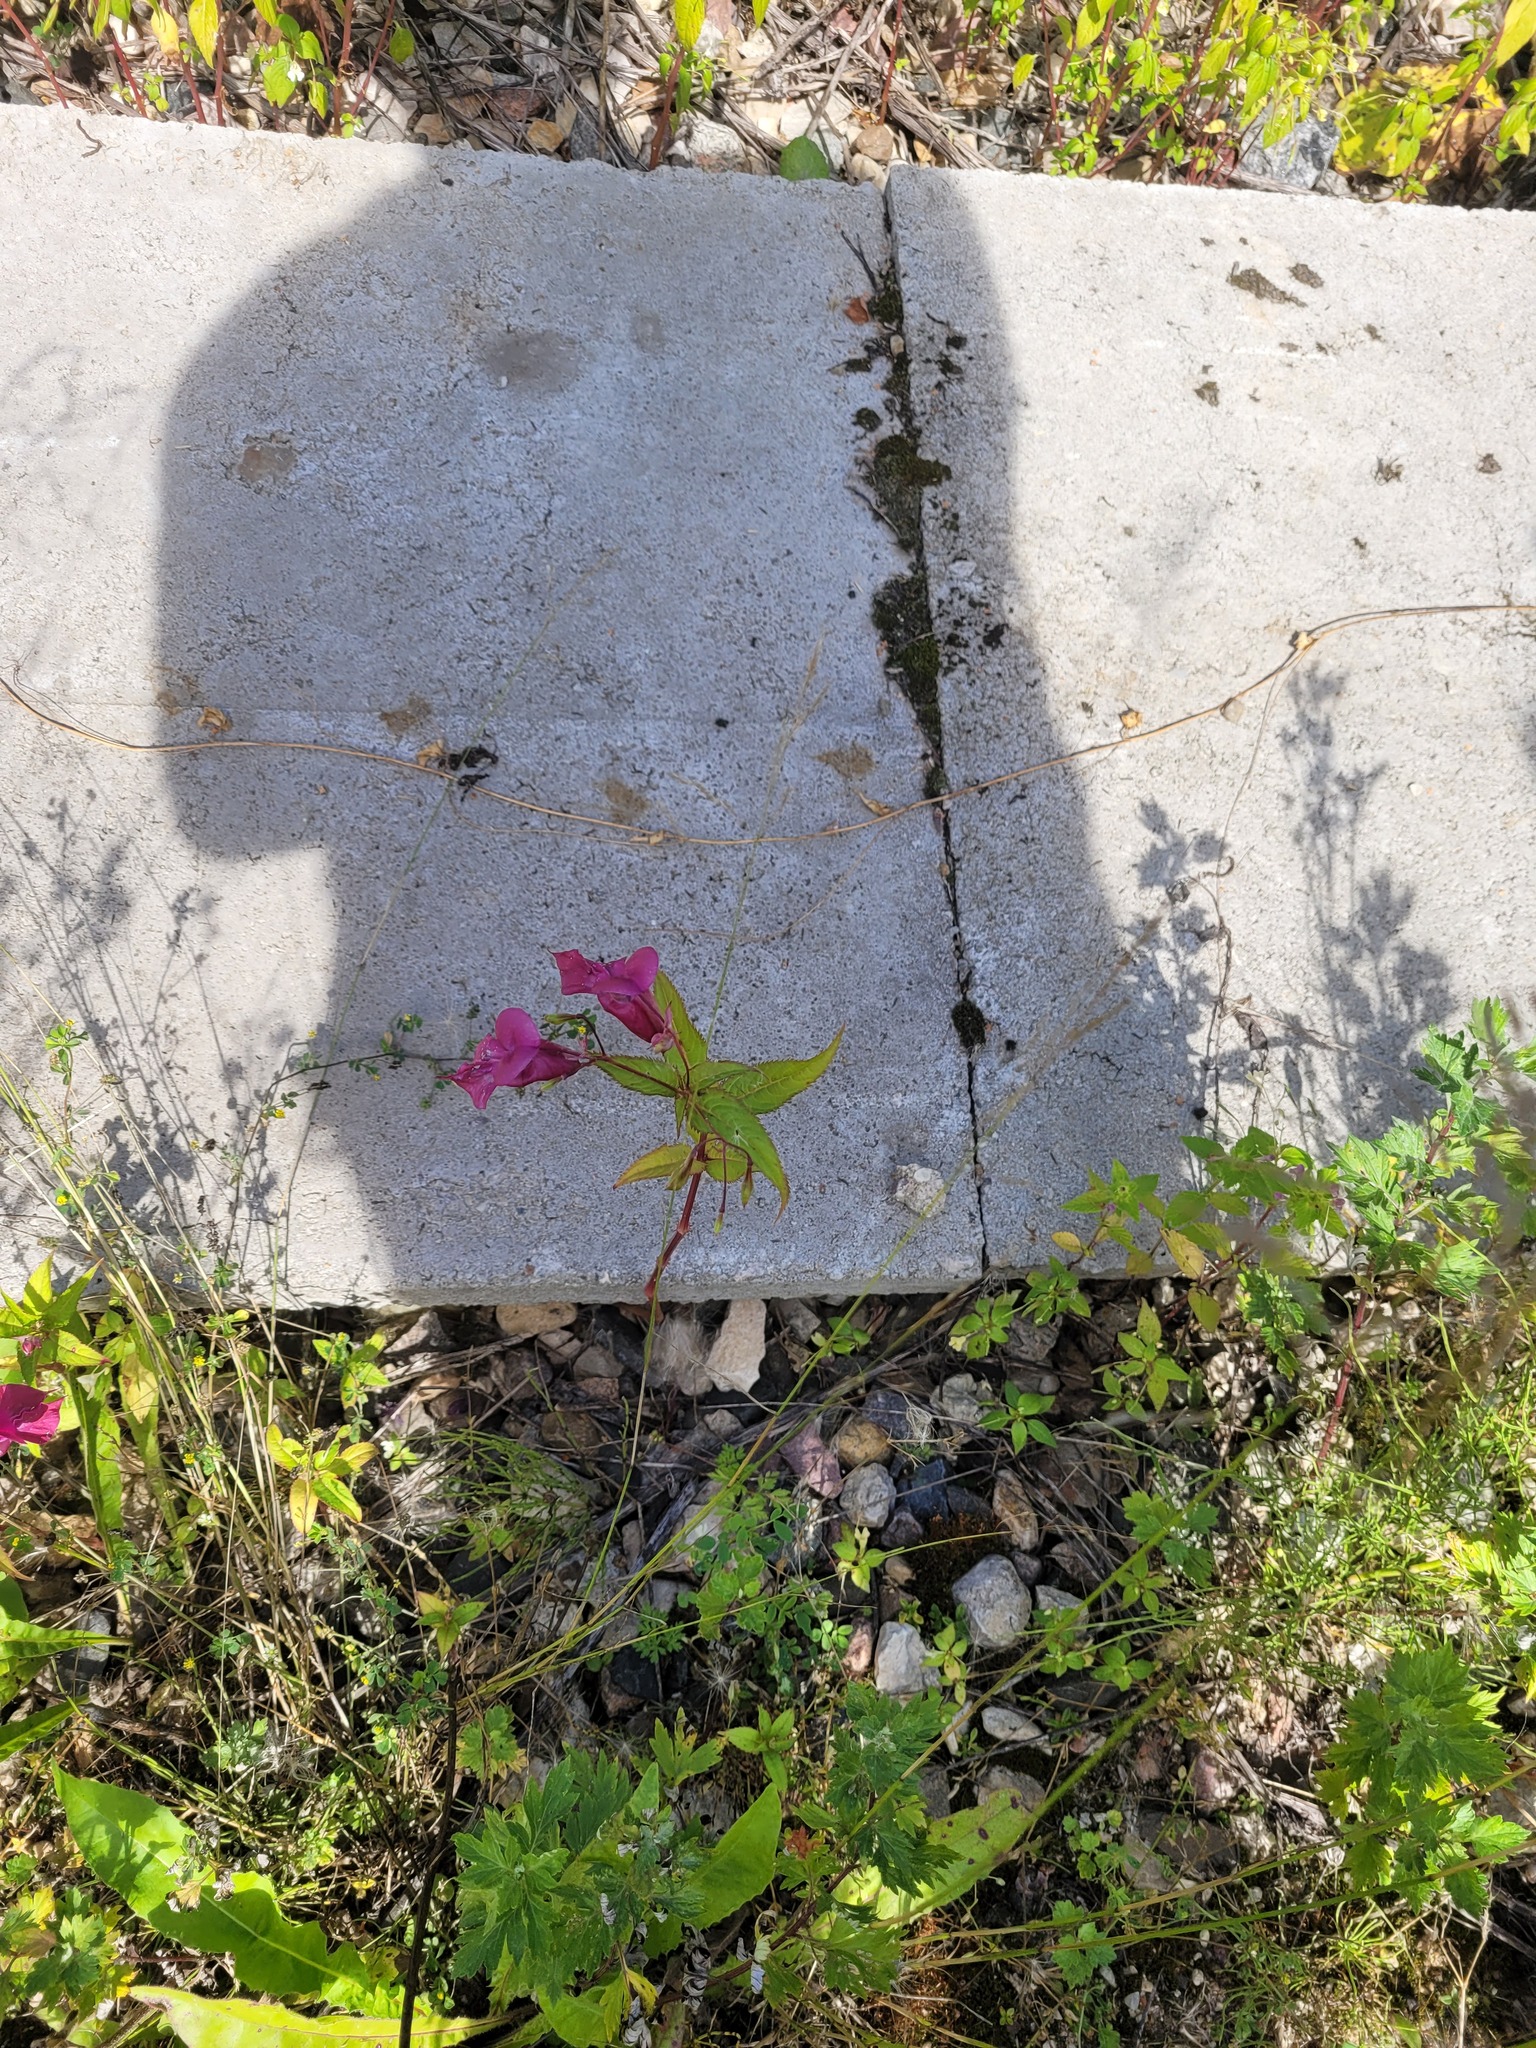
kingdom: Plantae
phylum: Tracheophyta
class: Magnoliopsida
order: Ericales
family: Balsaminaceae
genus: Impatiens
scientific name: Impatiens glandulifera
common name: Himalayan balsam
